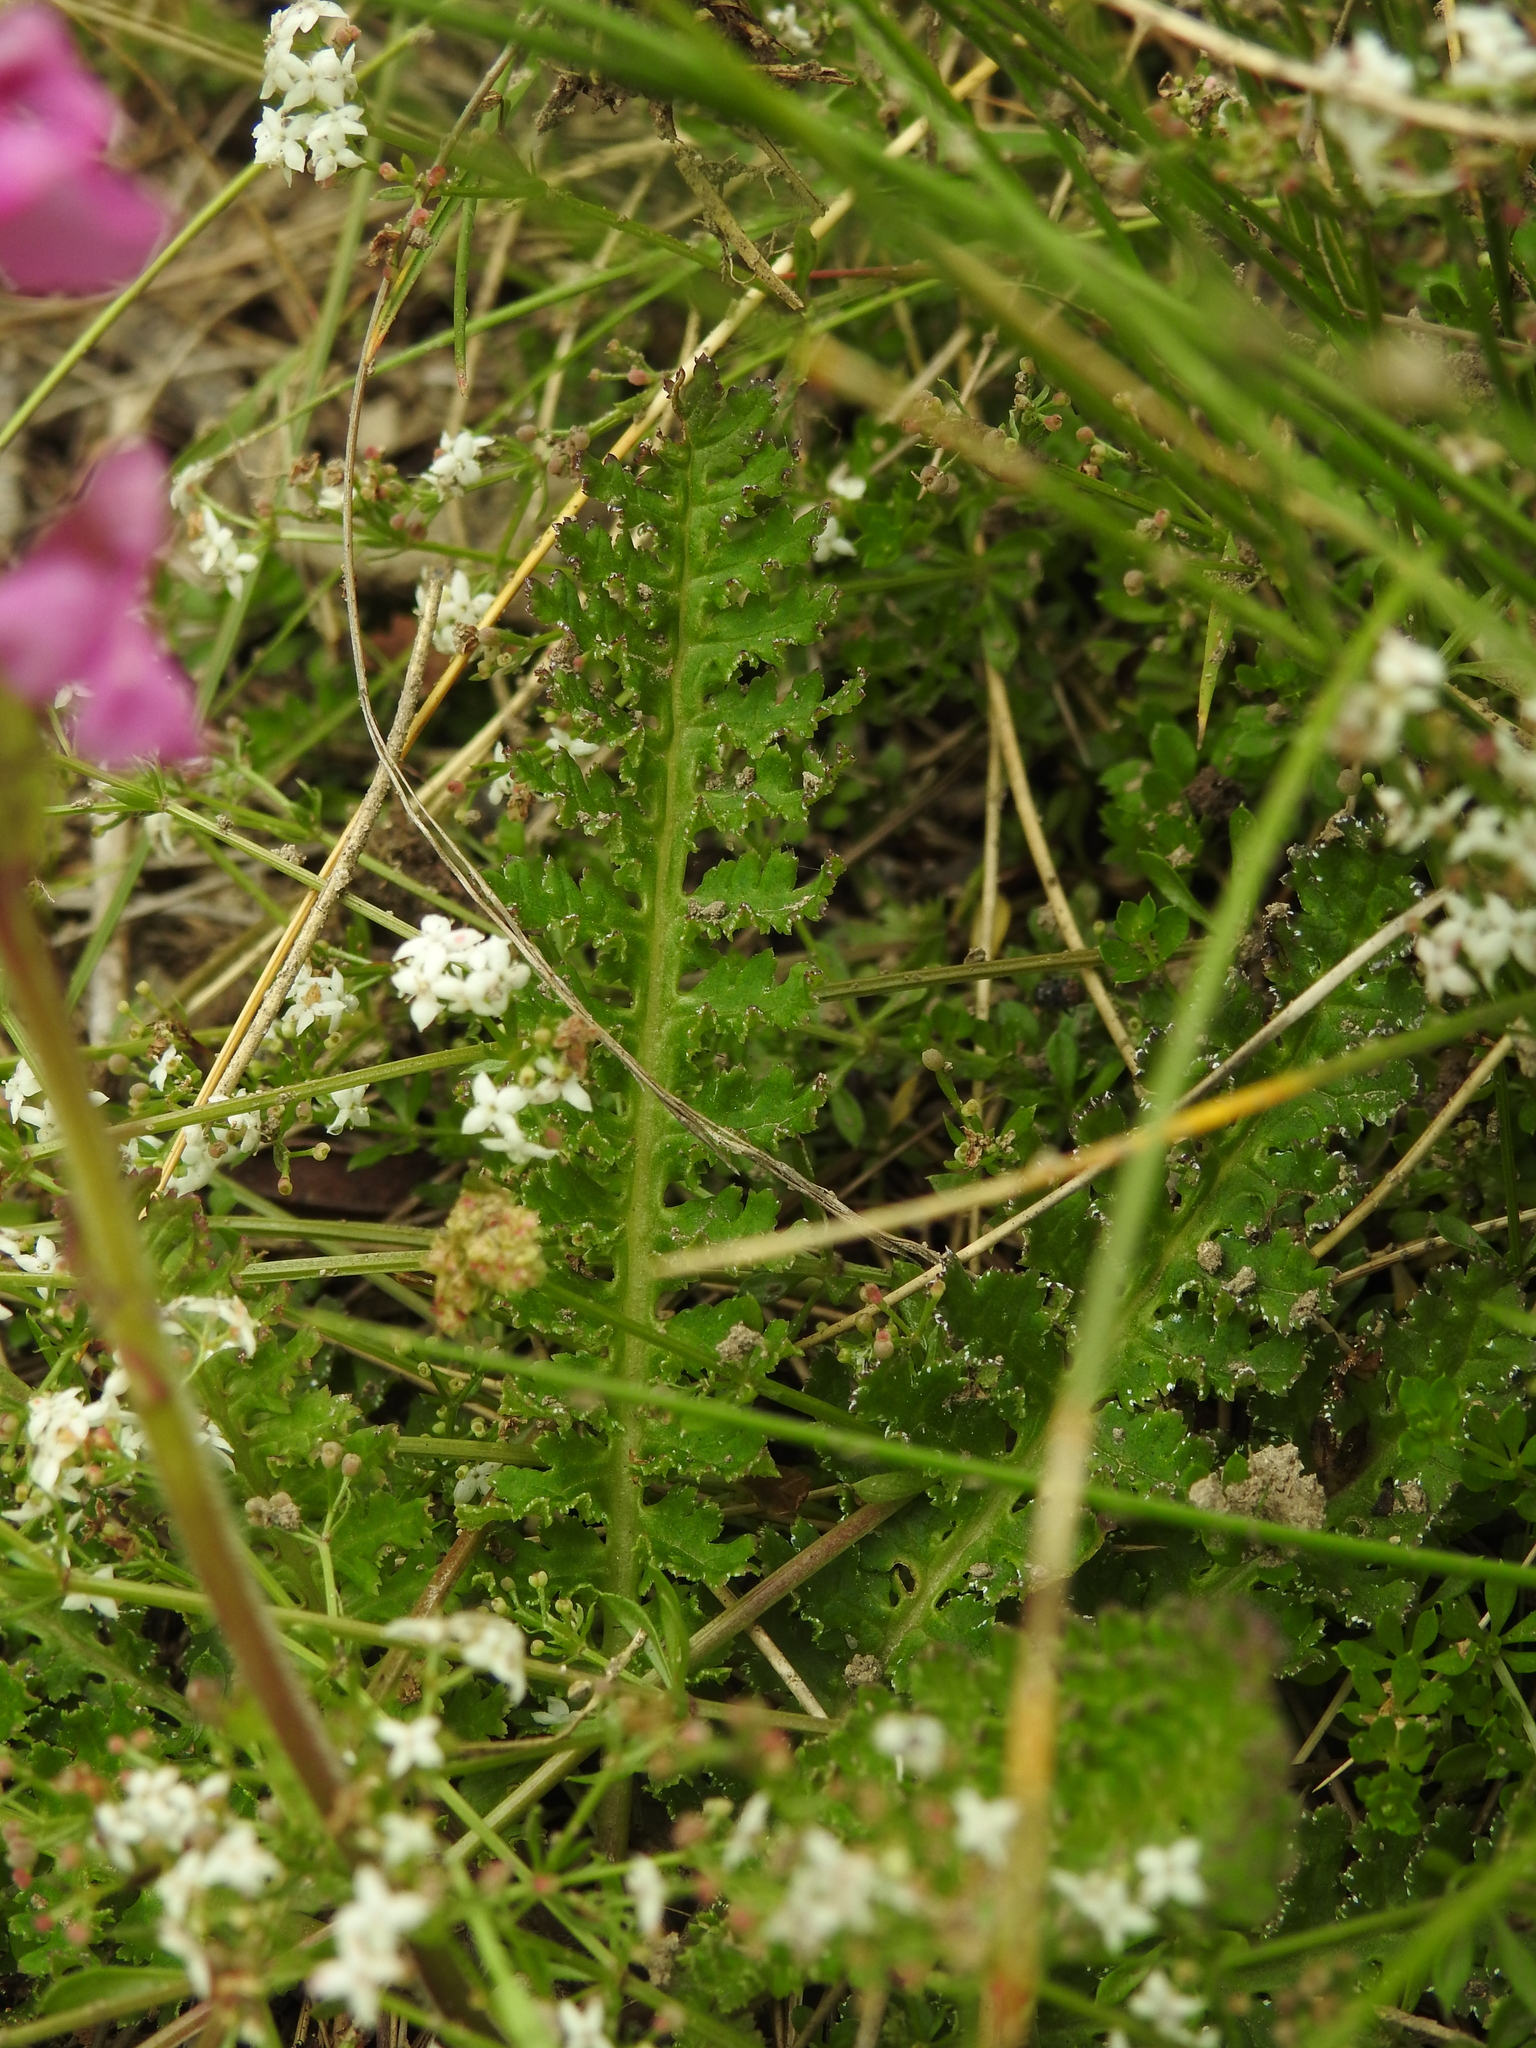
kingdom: Plantae
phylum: Tracheophyta
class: Magnoliopsida
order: Lamiales
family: Orobanchaceae
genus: Pedicularis
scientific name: Pedicularis pyrenaica
